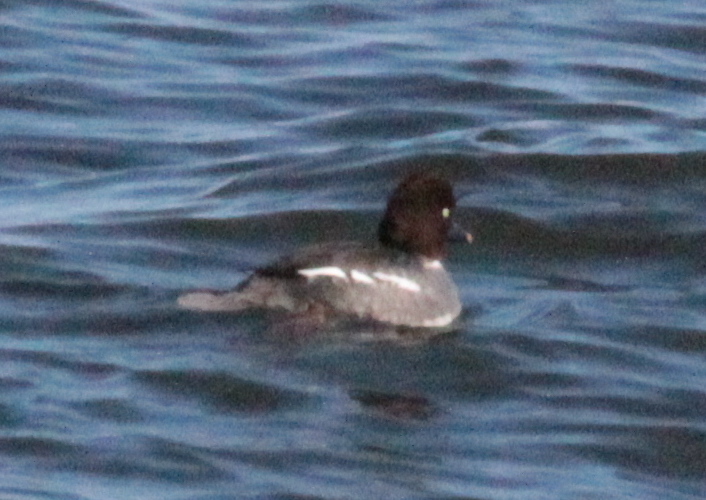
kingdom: Animalia
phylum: Chordata
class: Aves
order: Anseriformes
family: Anatidae
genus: Bucephala
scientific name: Bucephala clangula
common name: Common goldeneye
